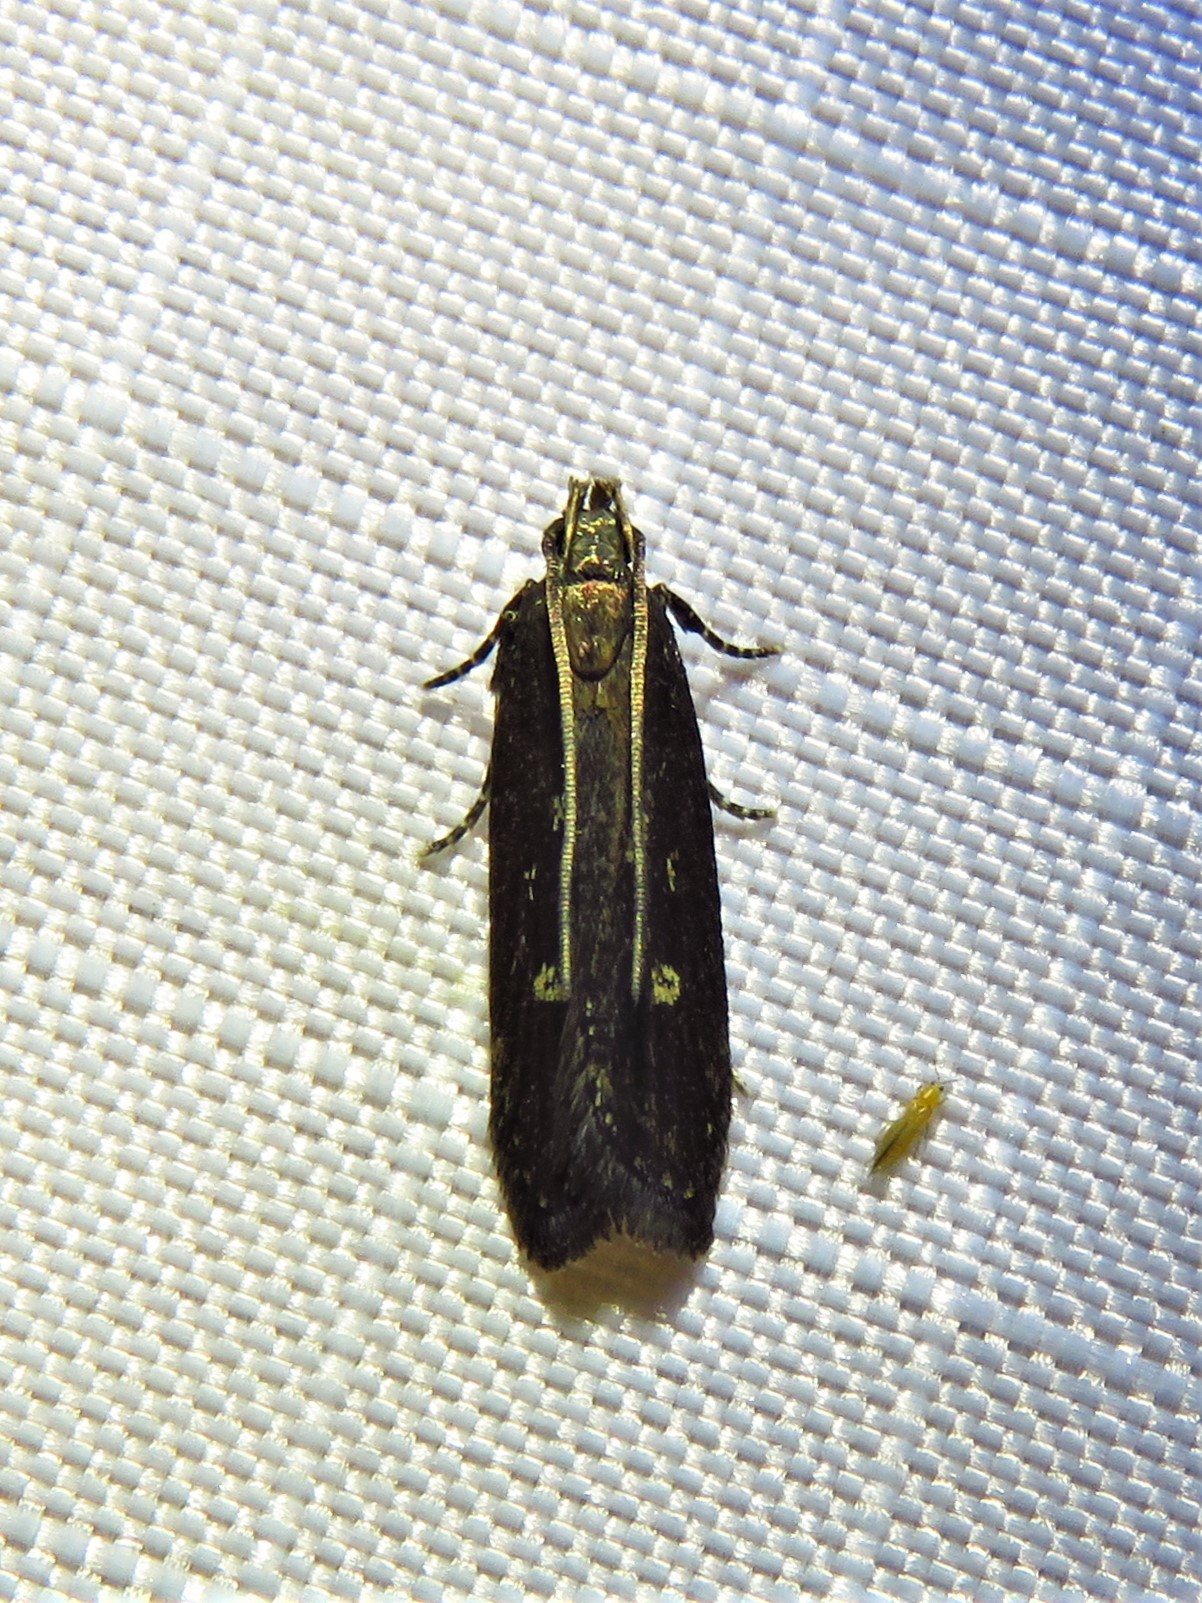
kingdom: Animalia
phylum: Arthropoda
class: Insecta
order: Lepidoptera
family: Gelechiidae
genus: Chionodes
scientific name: Chionodes discoocellella
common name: Eye-ringed chionodes moth
